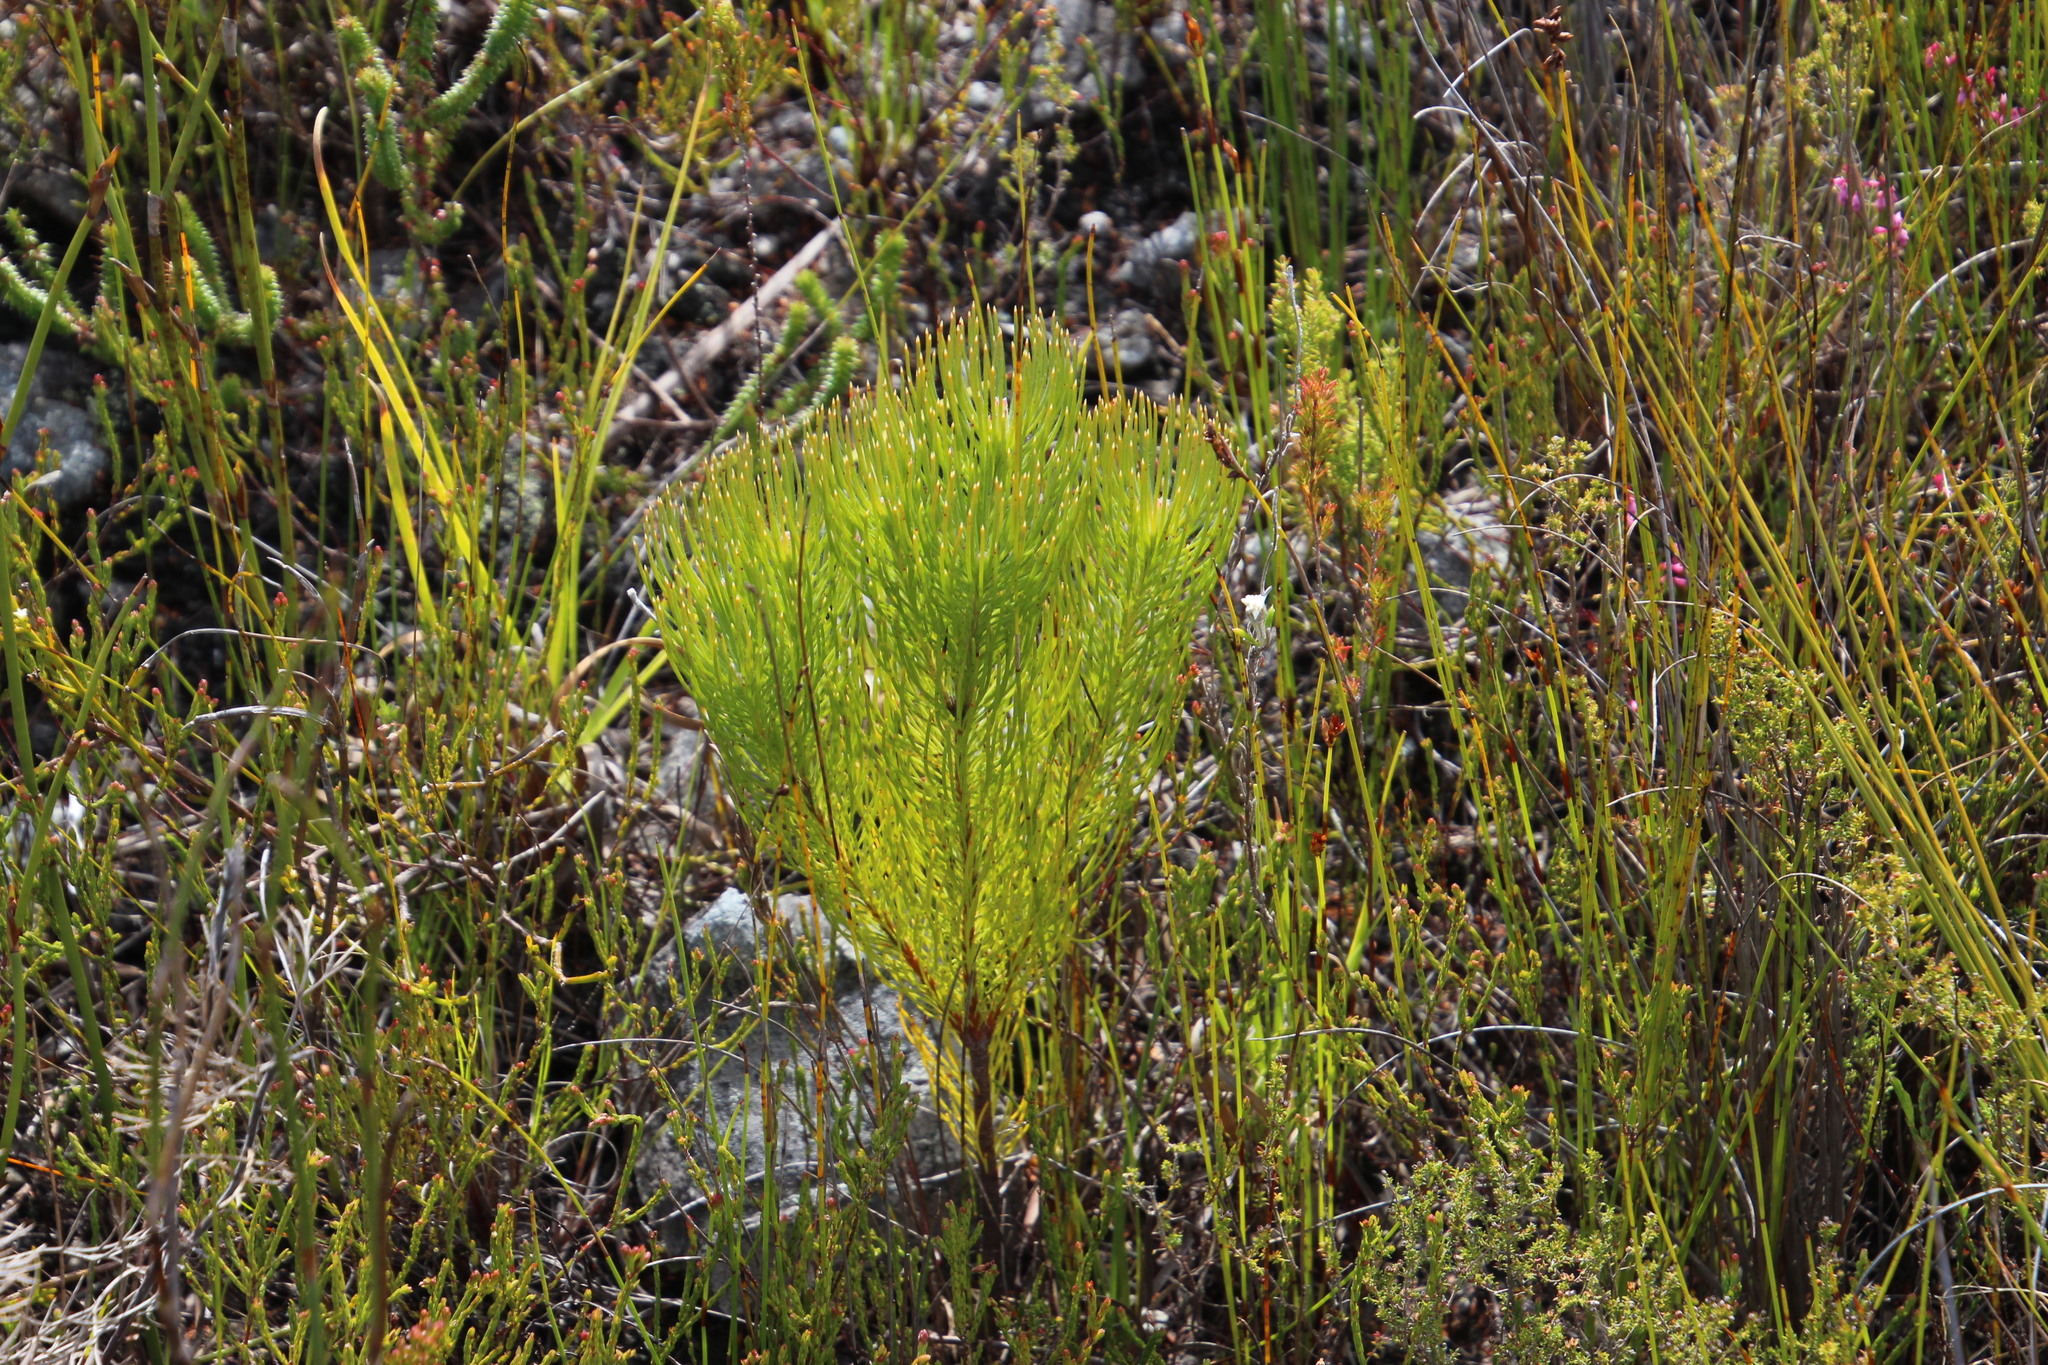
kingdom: Plantae
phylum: Tracheophyta
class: Magnoliopsida
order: Proteales
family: Proteaceae
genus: Spatalla
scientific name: Spatalla longifolia
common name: Pink-stalked spoon
